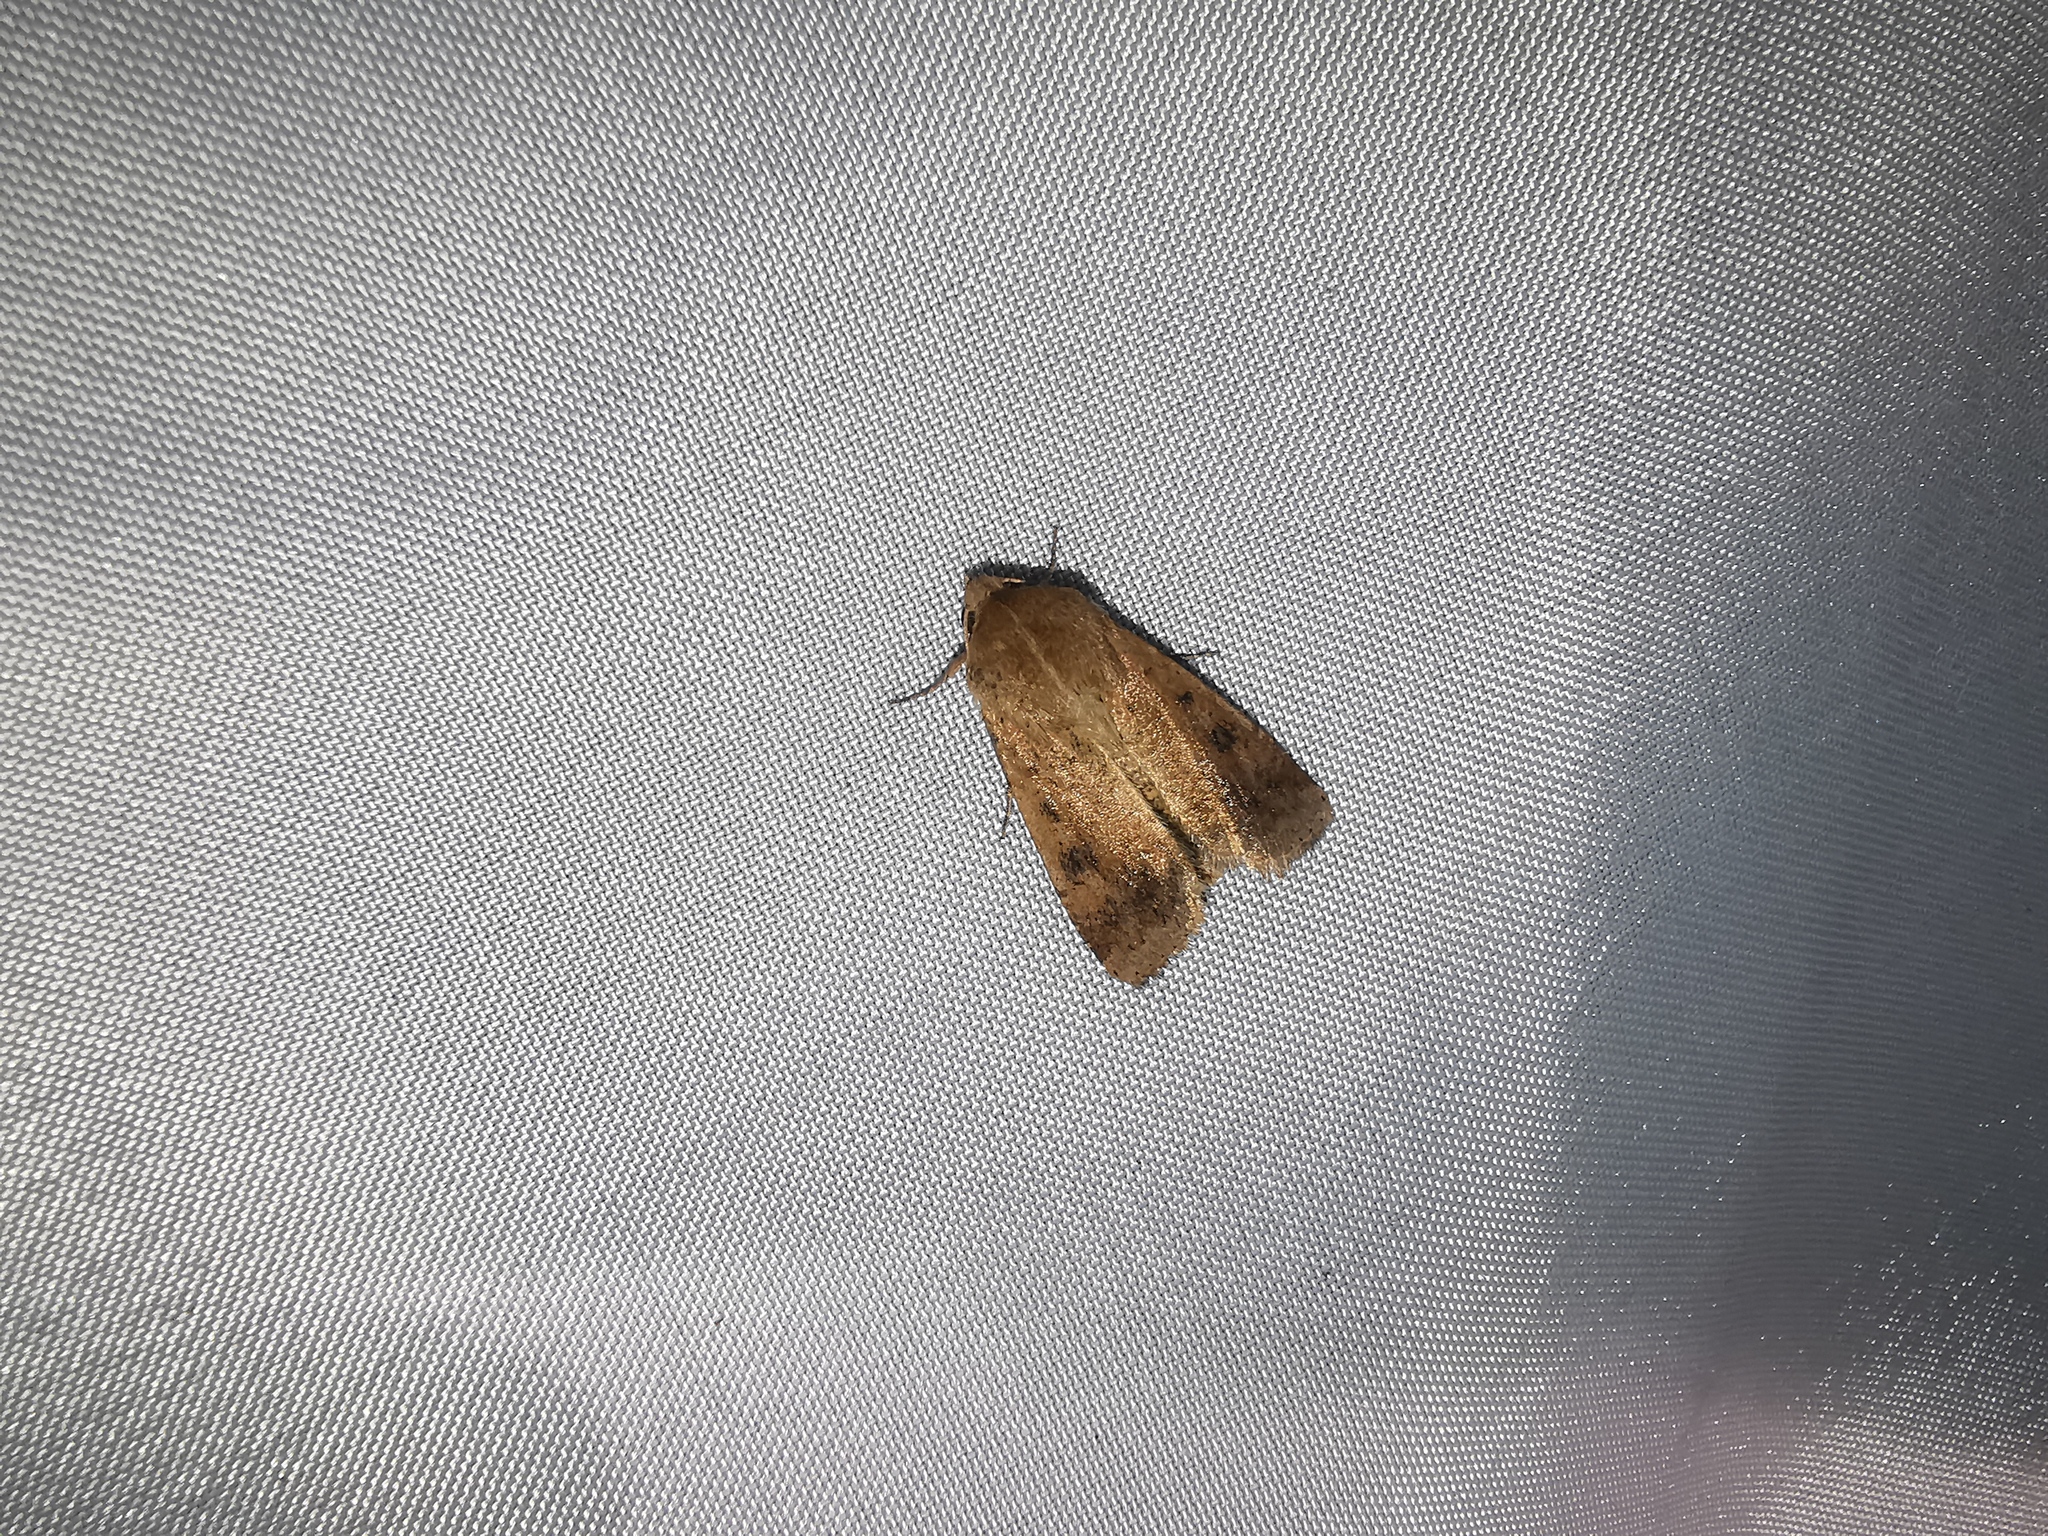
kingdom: Animalia
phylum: Arthropoda
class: Insecta
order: Lepidoptera
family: Noctuidae
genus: Helicoverpa
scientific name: Helicoverpa armigera
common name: Cotton bollworm
